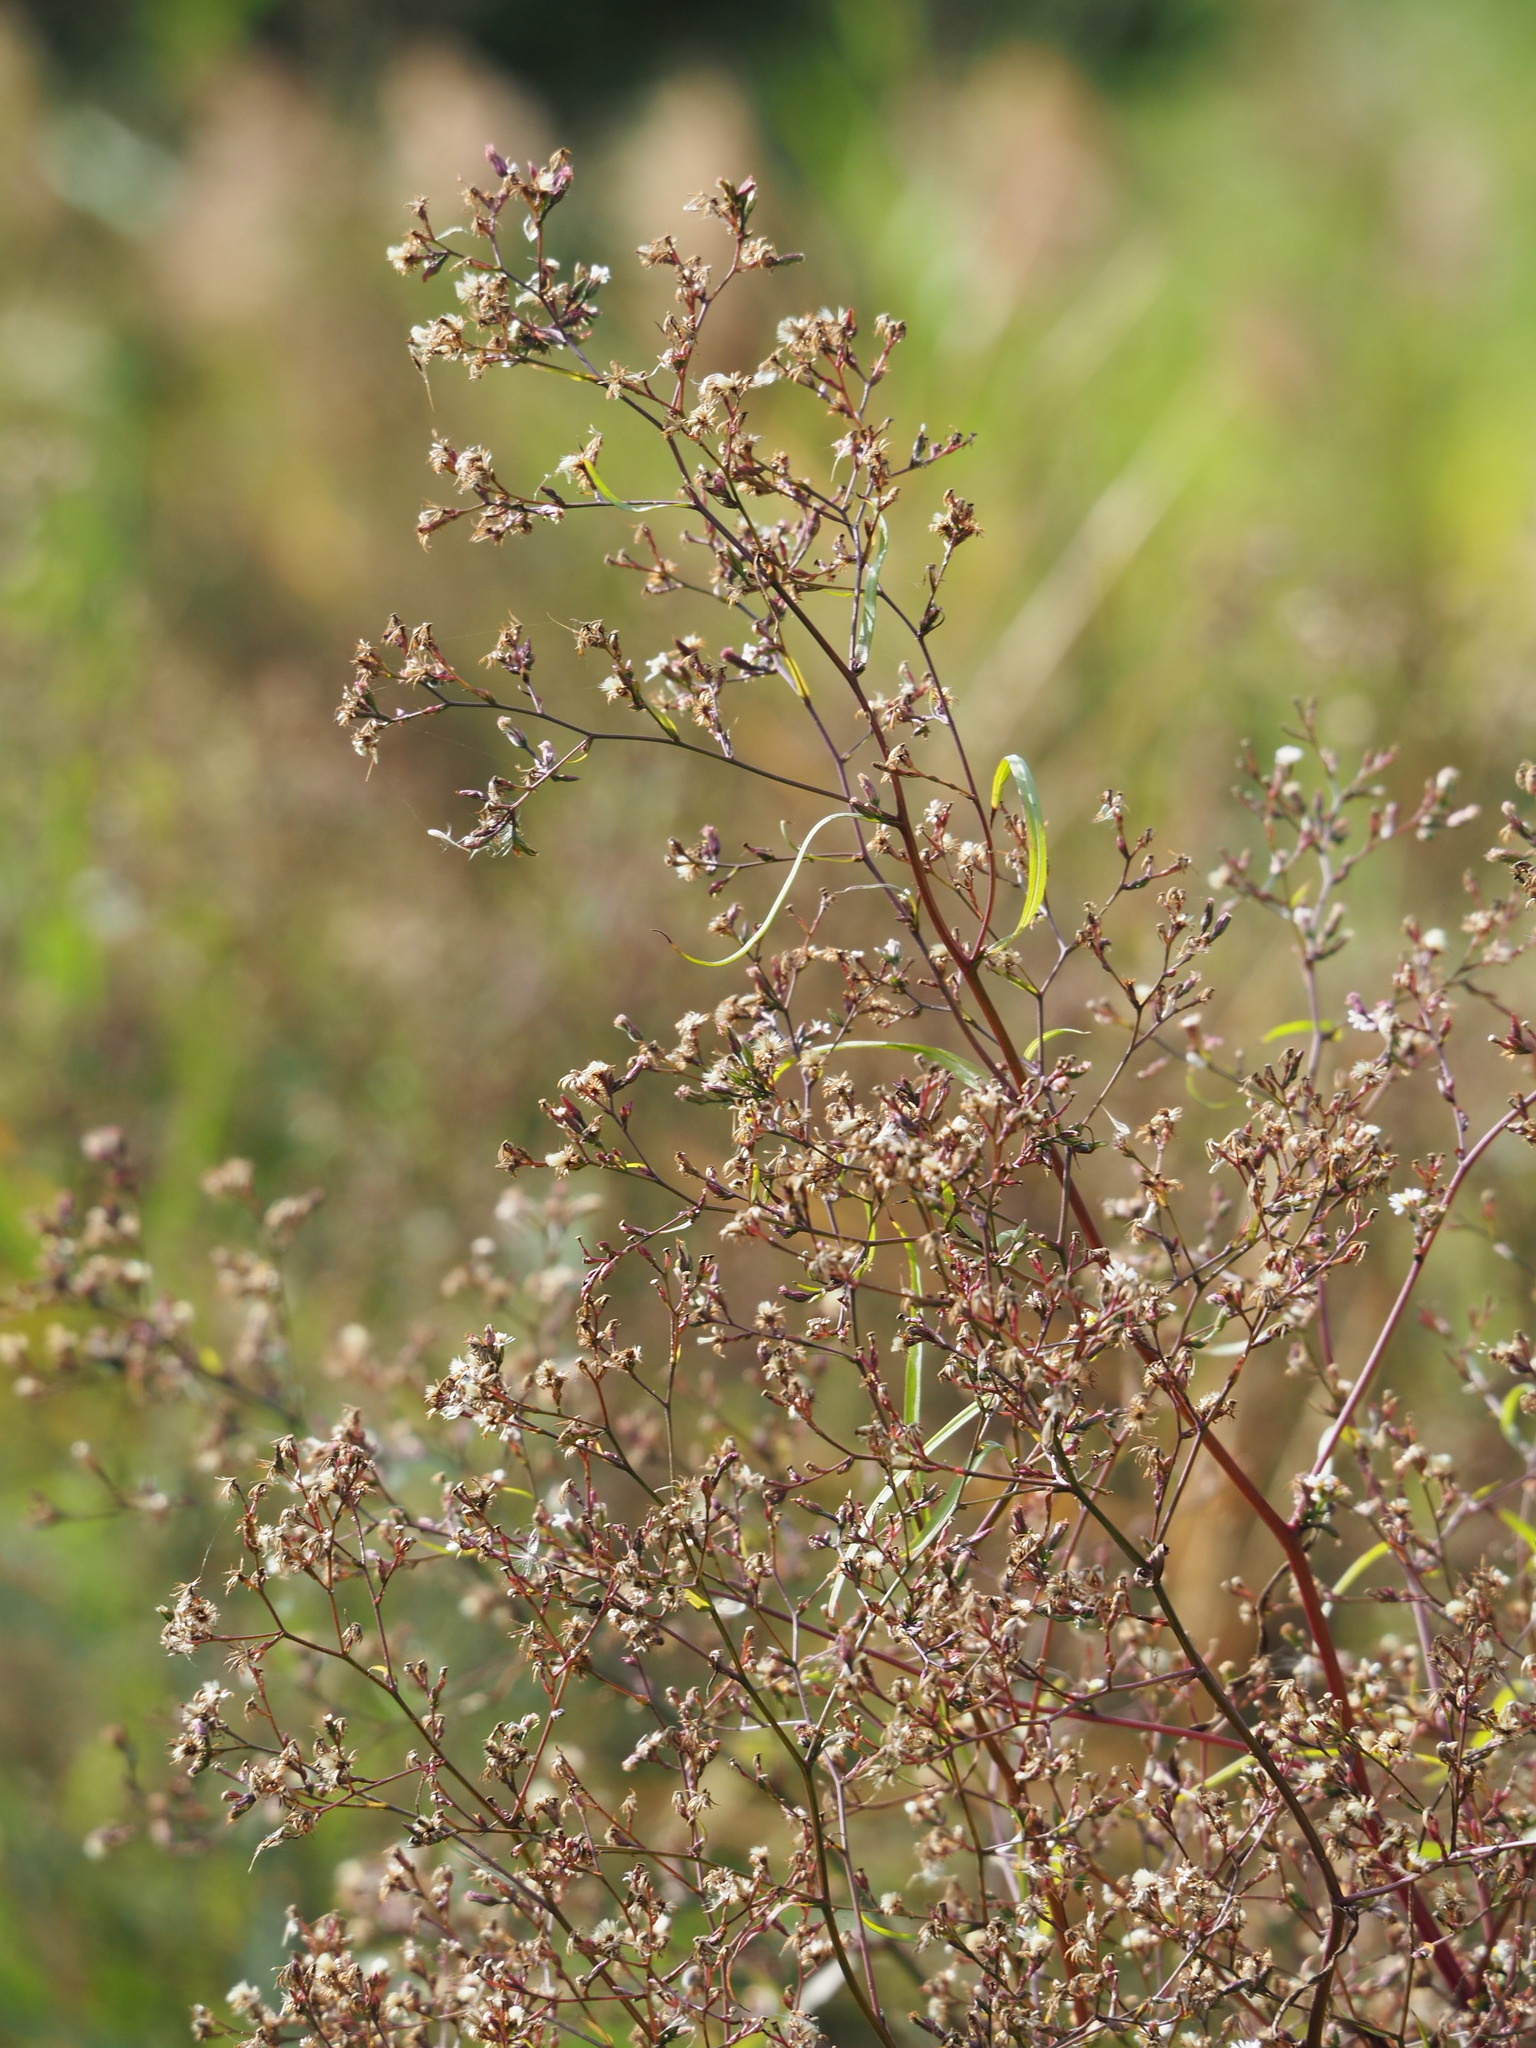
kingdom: Plantae
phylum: Tracheophyta
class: Magnoliopsida
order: Asterales
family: Asteraceae
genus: Symphyotrichum
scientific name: Symphyotrichum subulatum
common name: Annual saltmarsh aster
